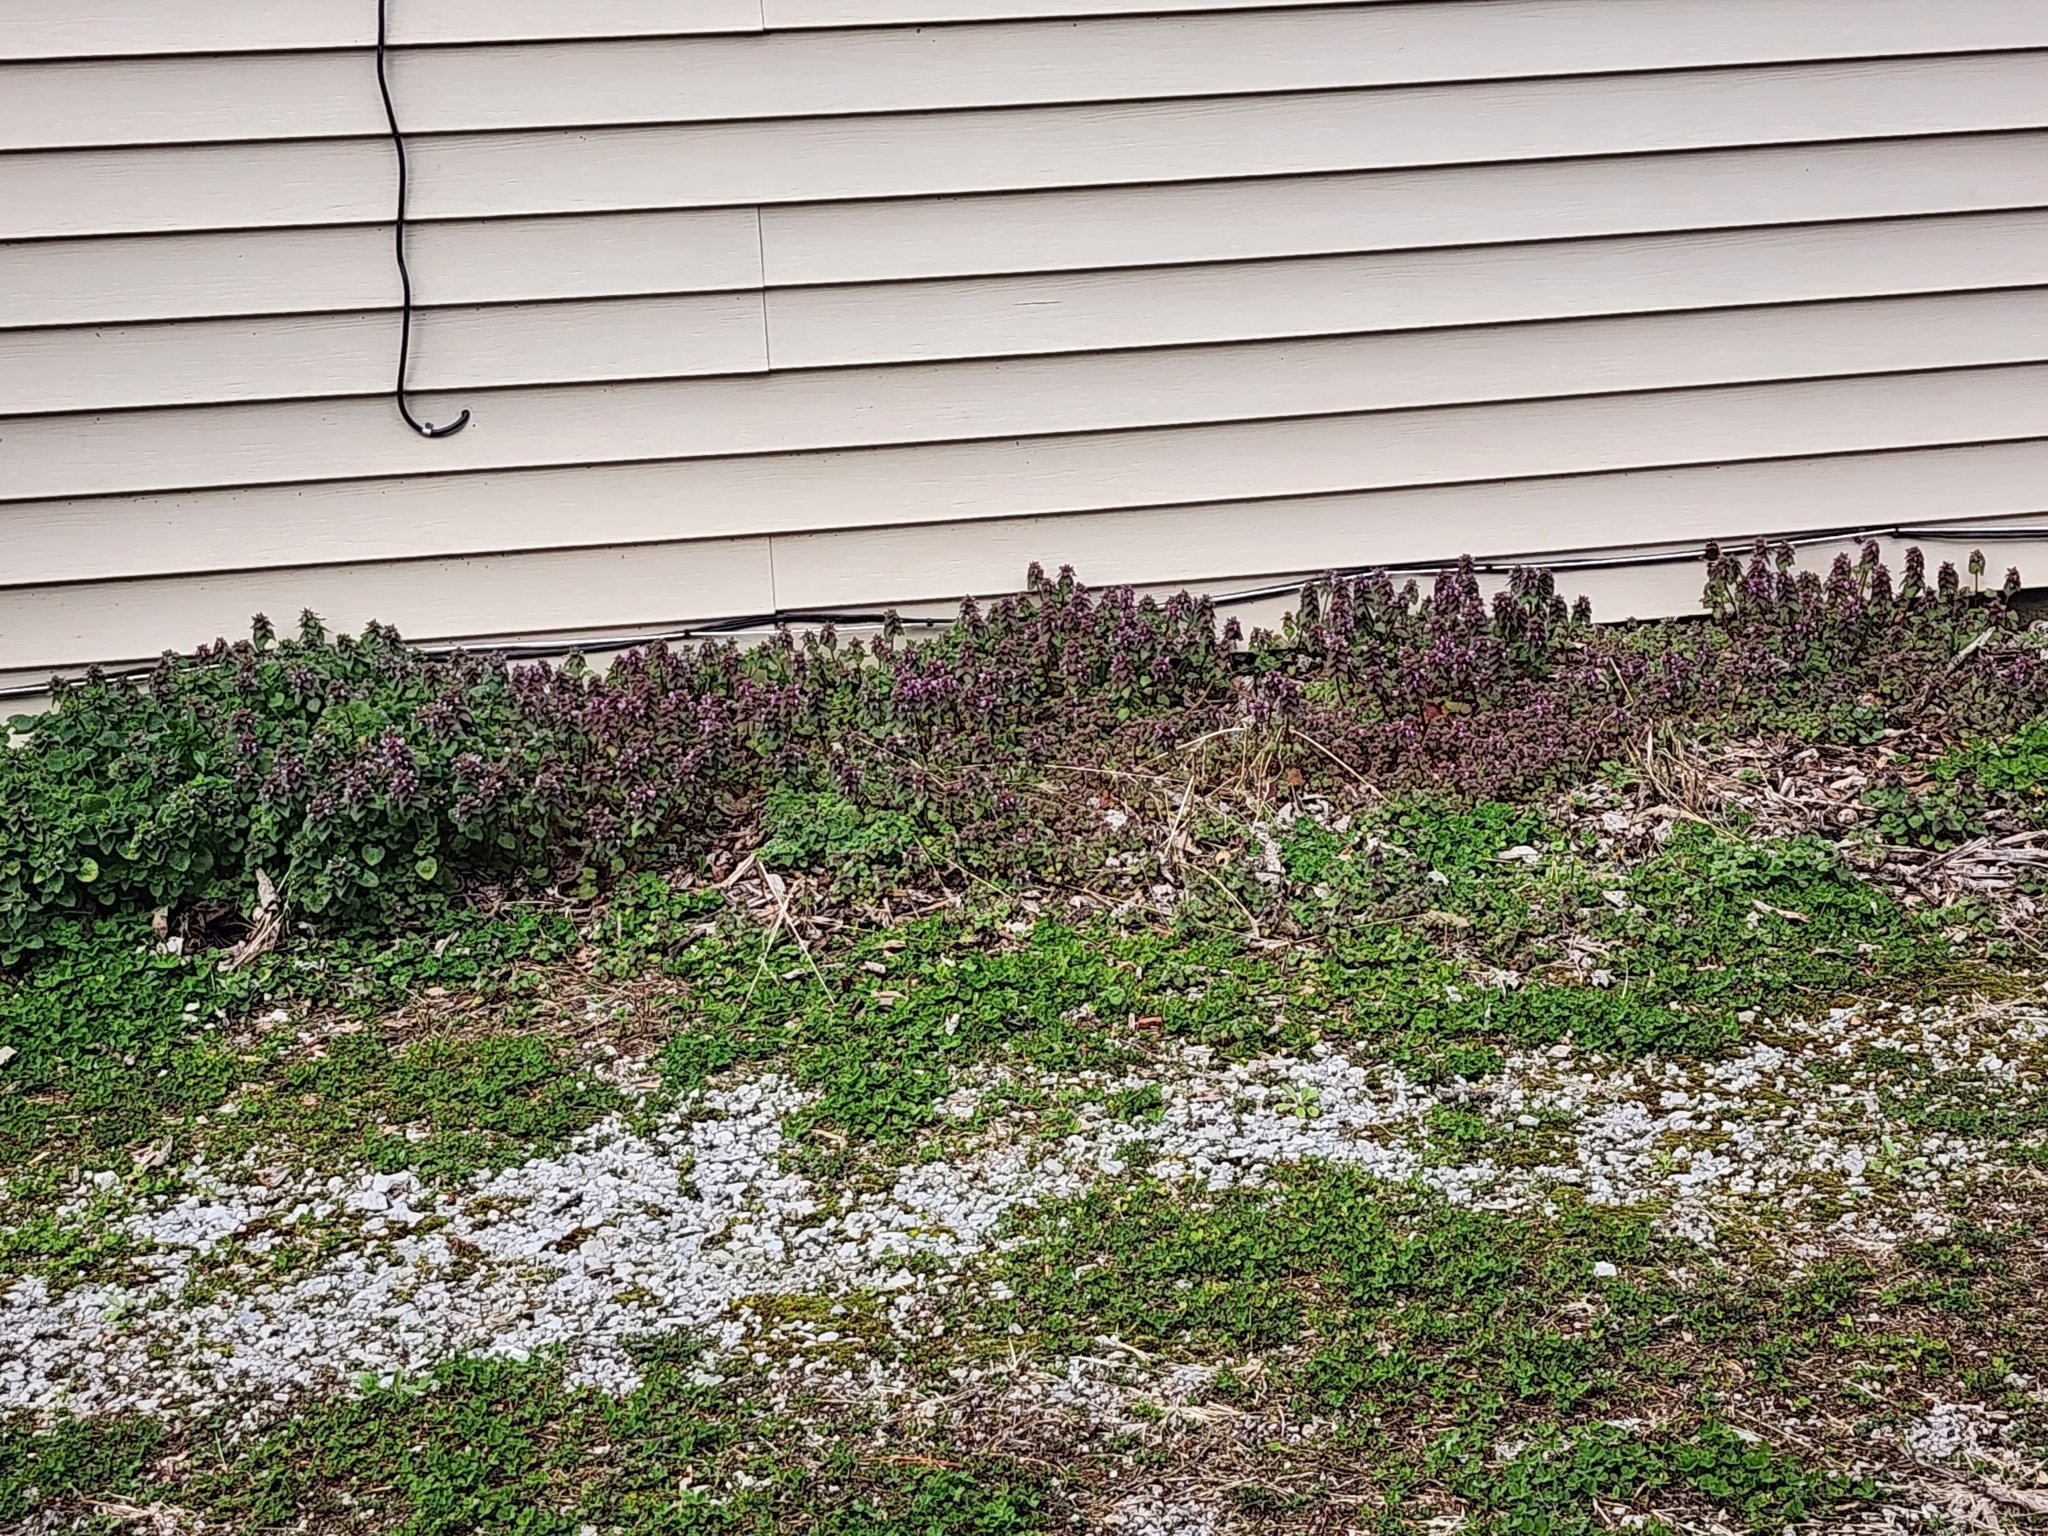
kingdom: Plantae
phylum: Tracheophyta
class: Magnoliopsida
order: Lamiales
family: Lamiaceae
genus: Lamium
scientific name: Lamium purpureum
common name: Red dead-nettle
